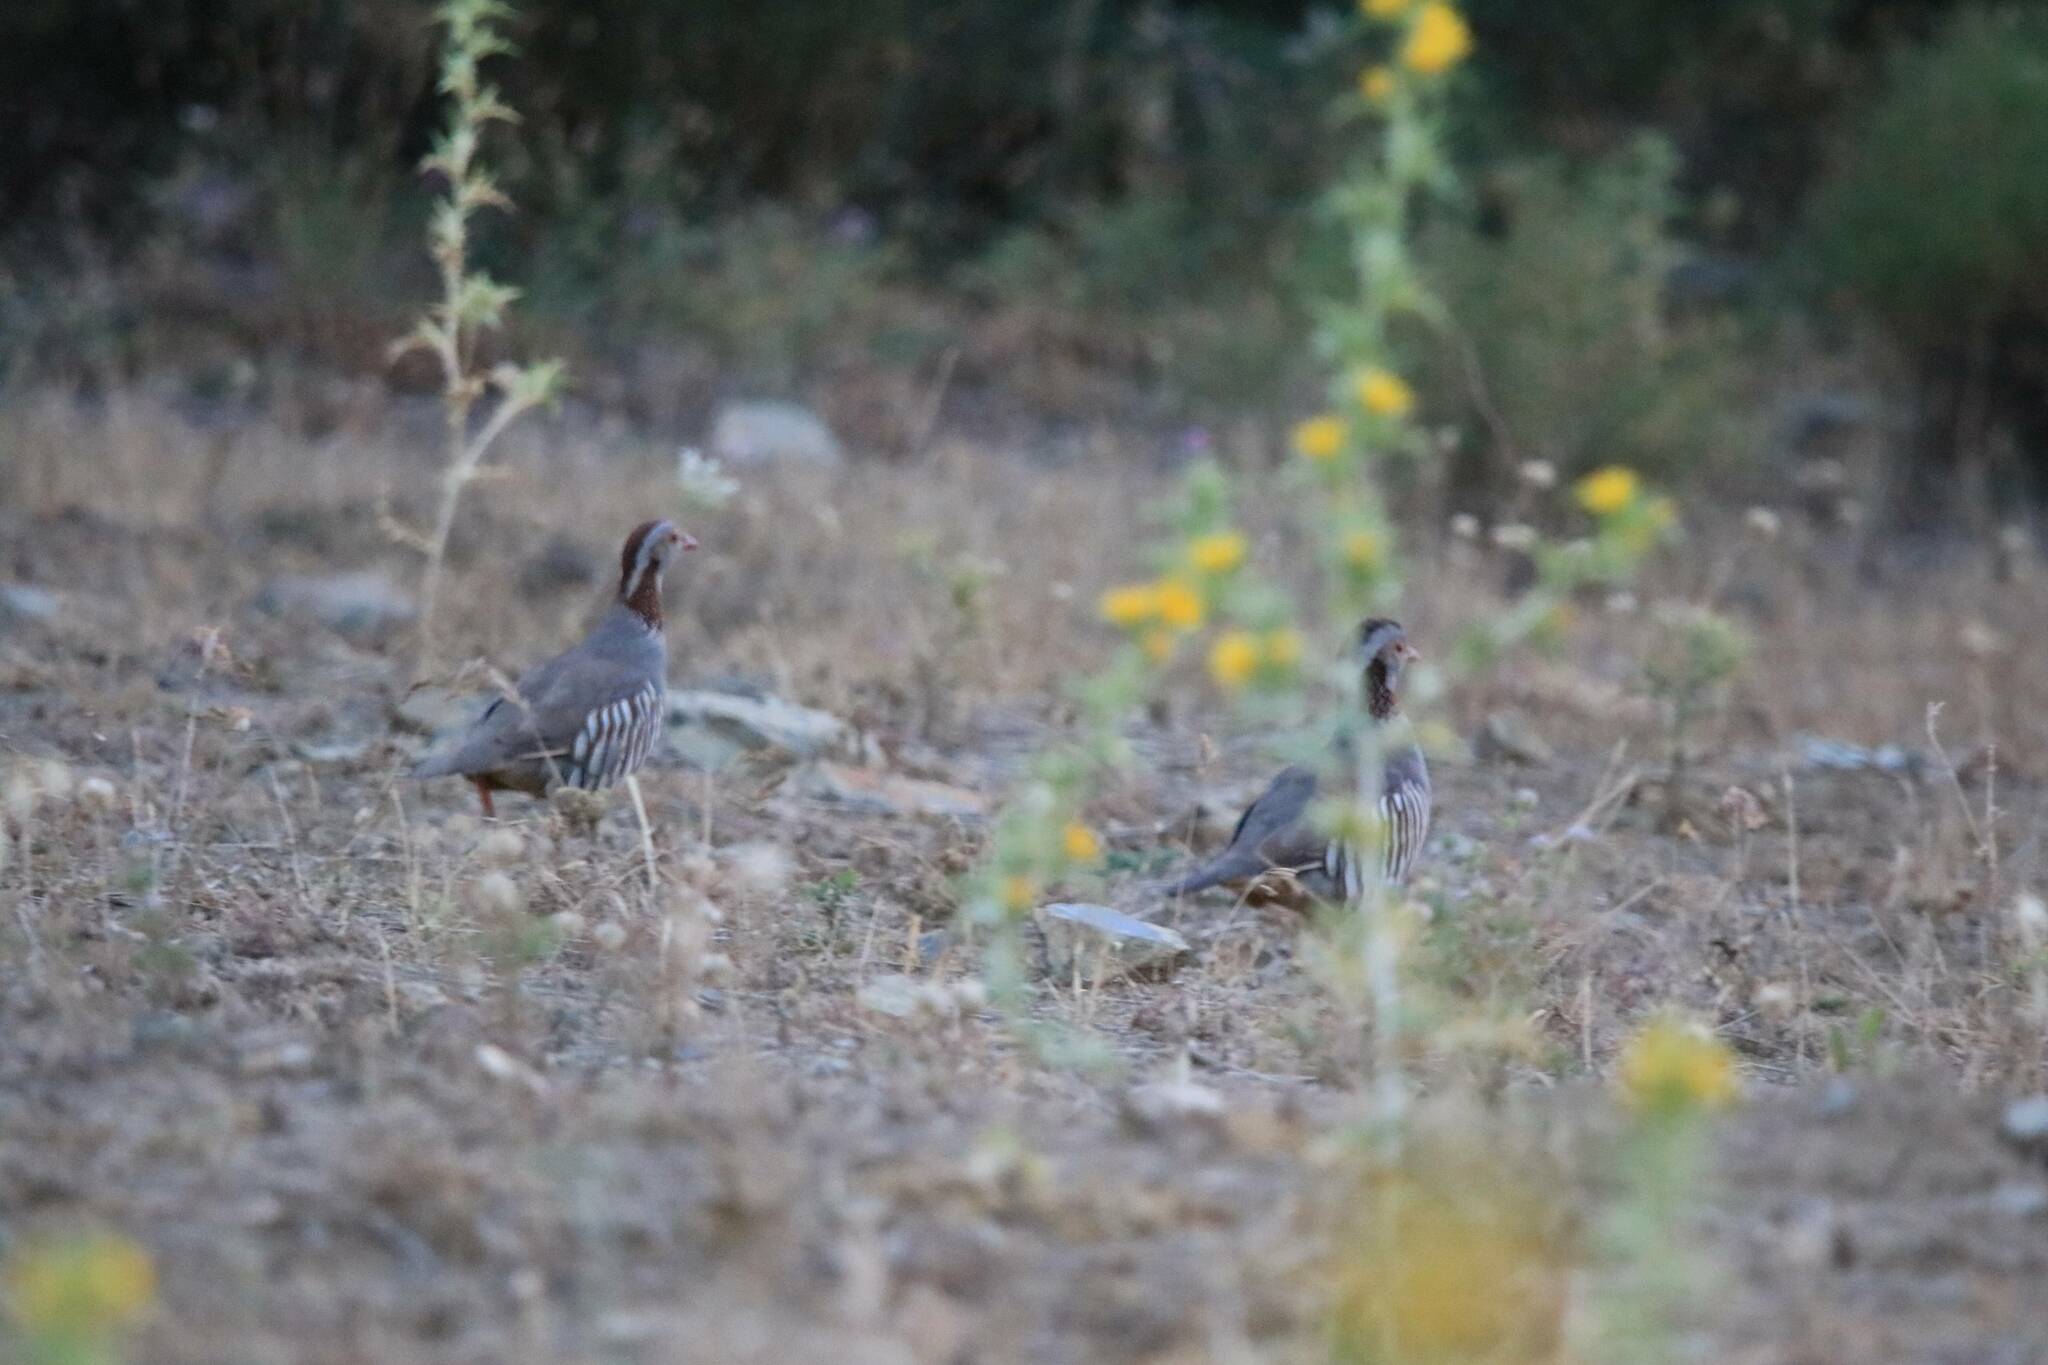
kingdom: Animalia
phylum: Chordata
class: Aves
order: Galliformes
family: Phasianidae
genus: Alectoris
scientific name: Alectoris barbara
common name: Barbary partridge
